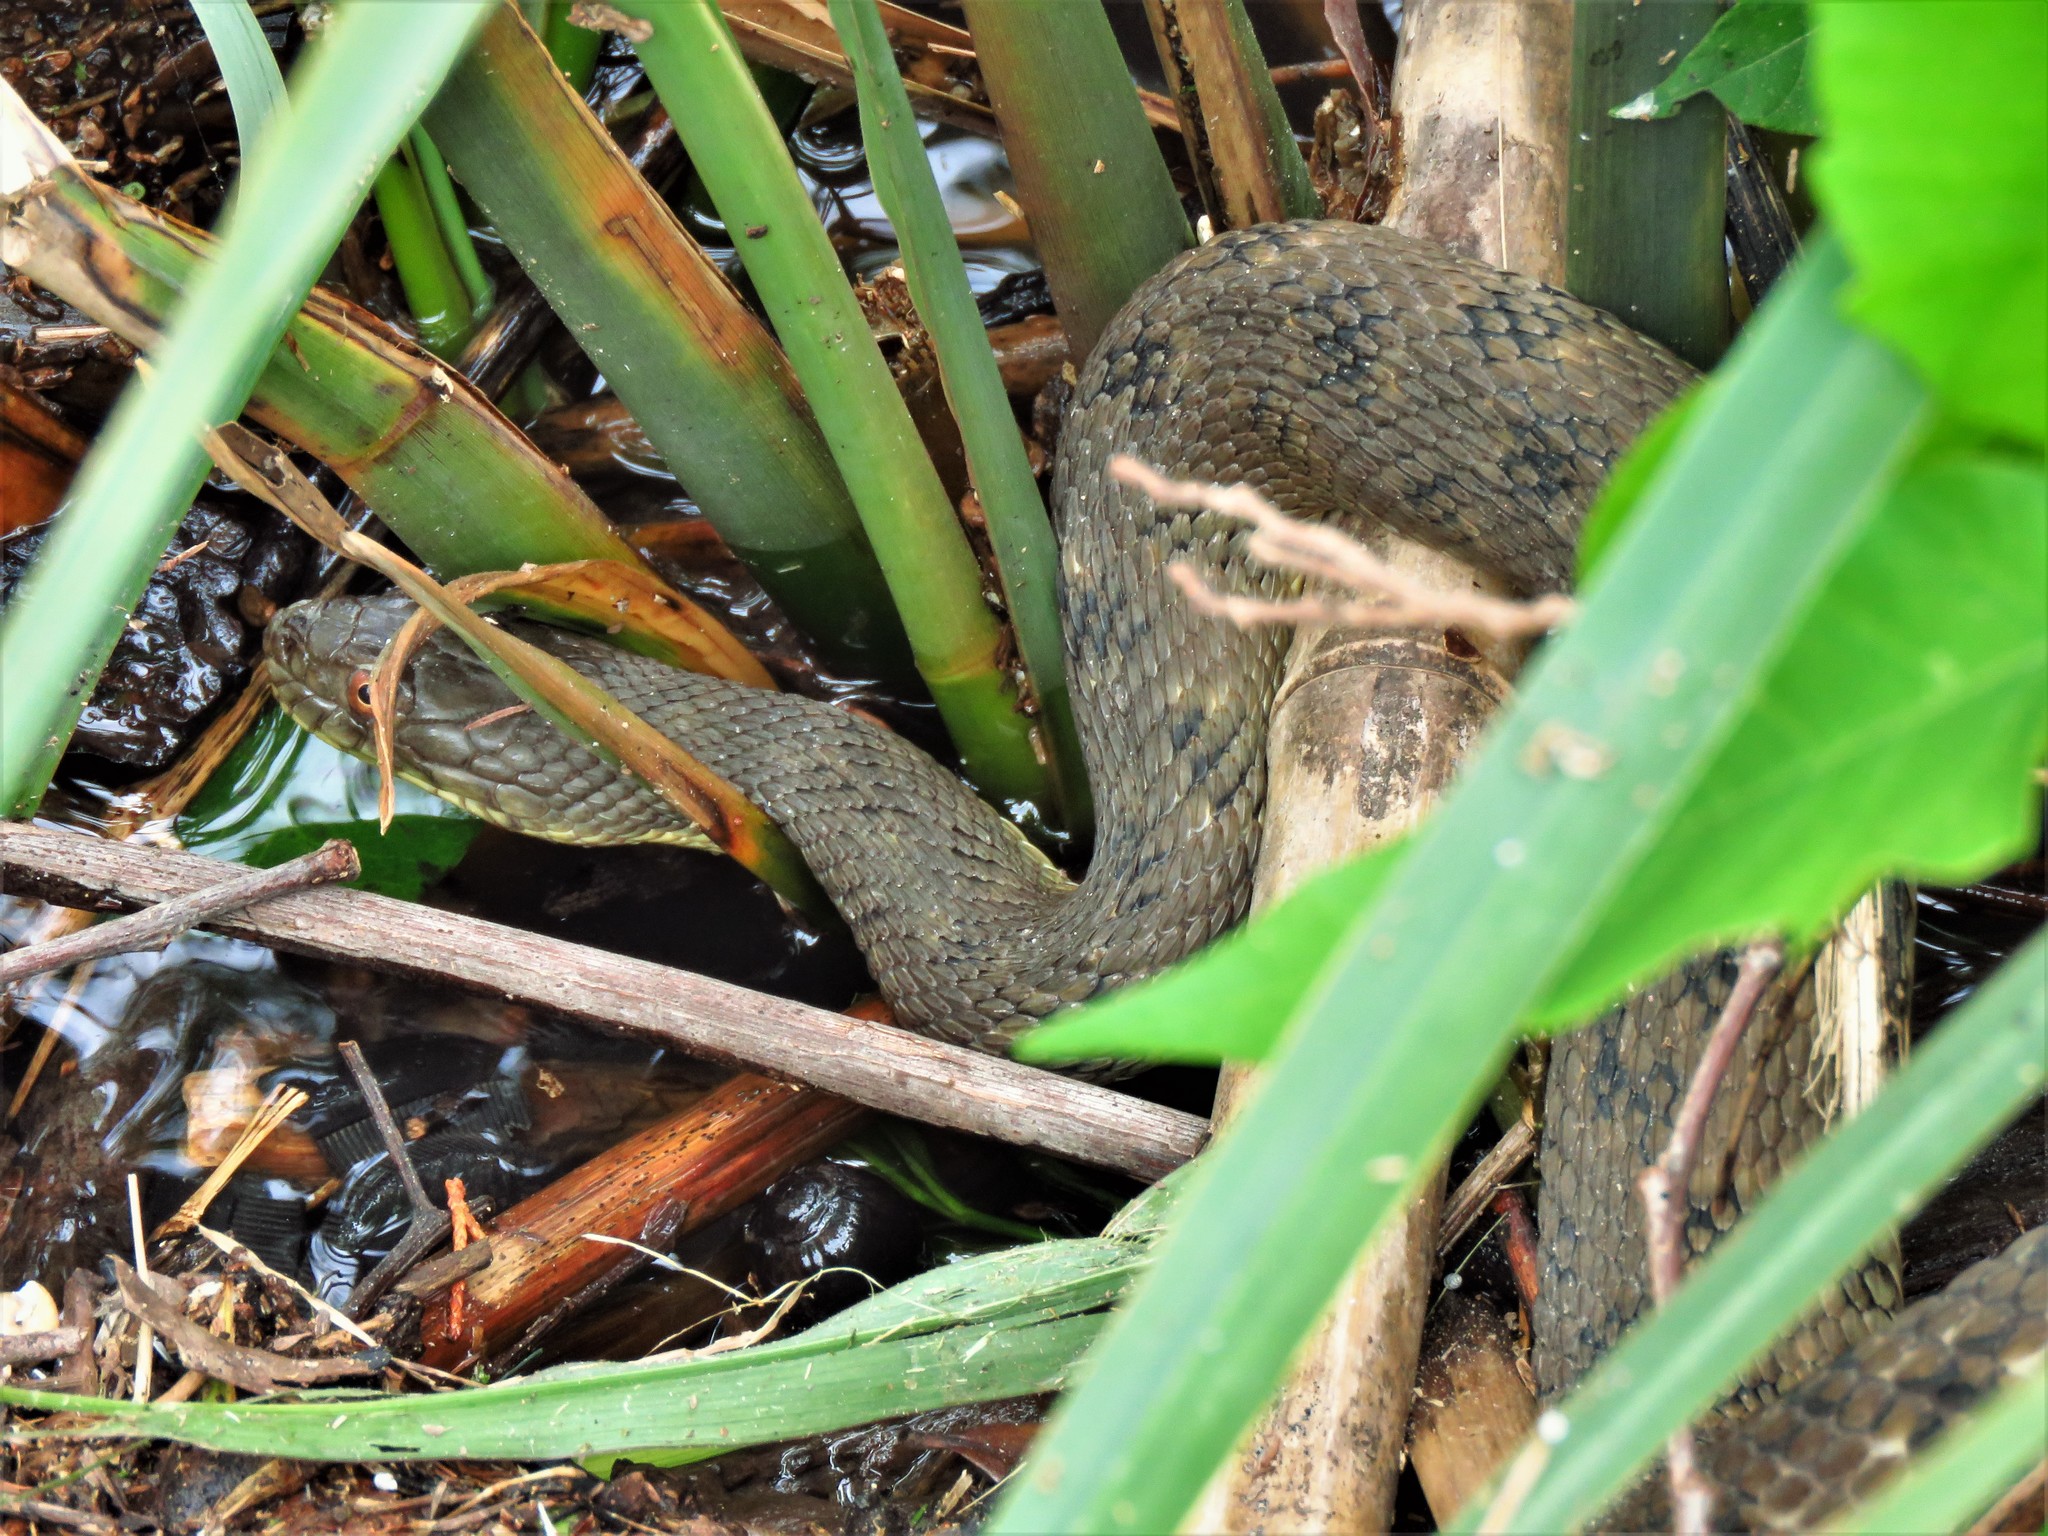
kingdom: Animalia
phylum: Chordata
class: Squamata
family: Colubridae
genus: Nerodia
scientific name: Nerodia rhombifer
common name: Diamondback water snake
